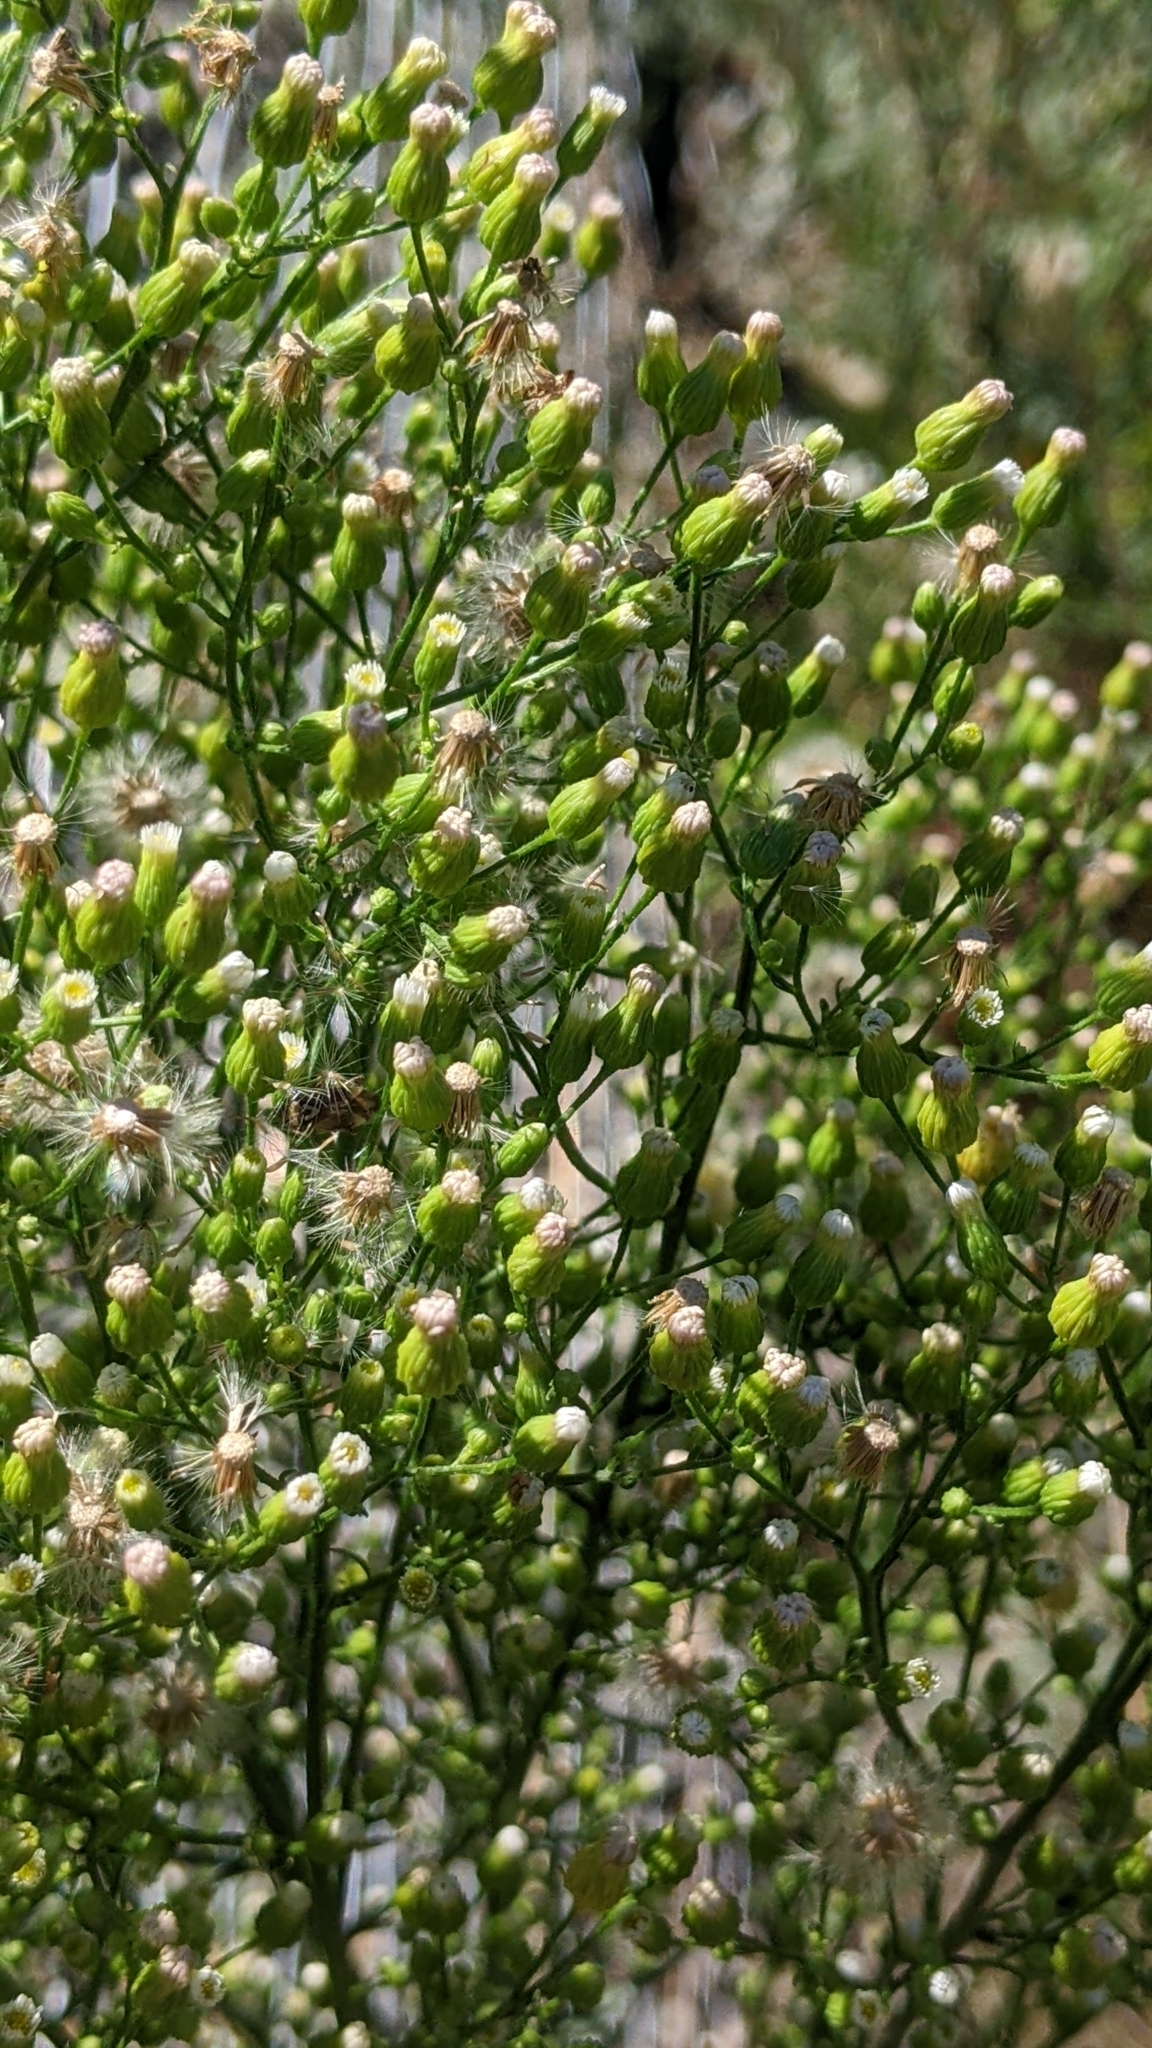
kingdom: Plantae
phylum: Tracheophyta
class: Magnoliopsida
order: Asterales
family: Asteraceae
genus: Erigeron
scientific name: Erigeron canadensis
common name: Canadian fleabane
